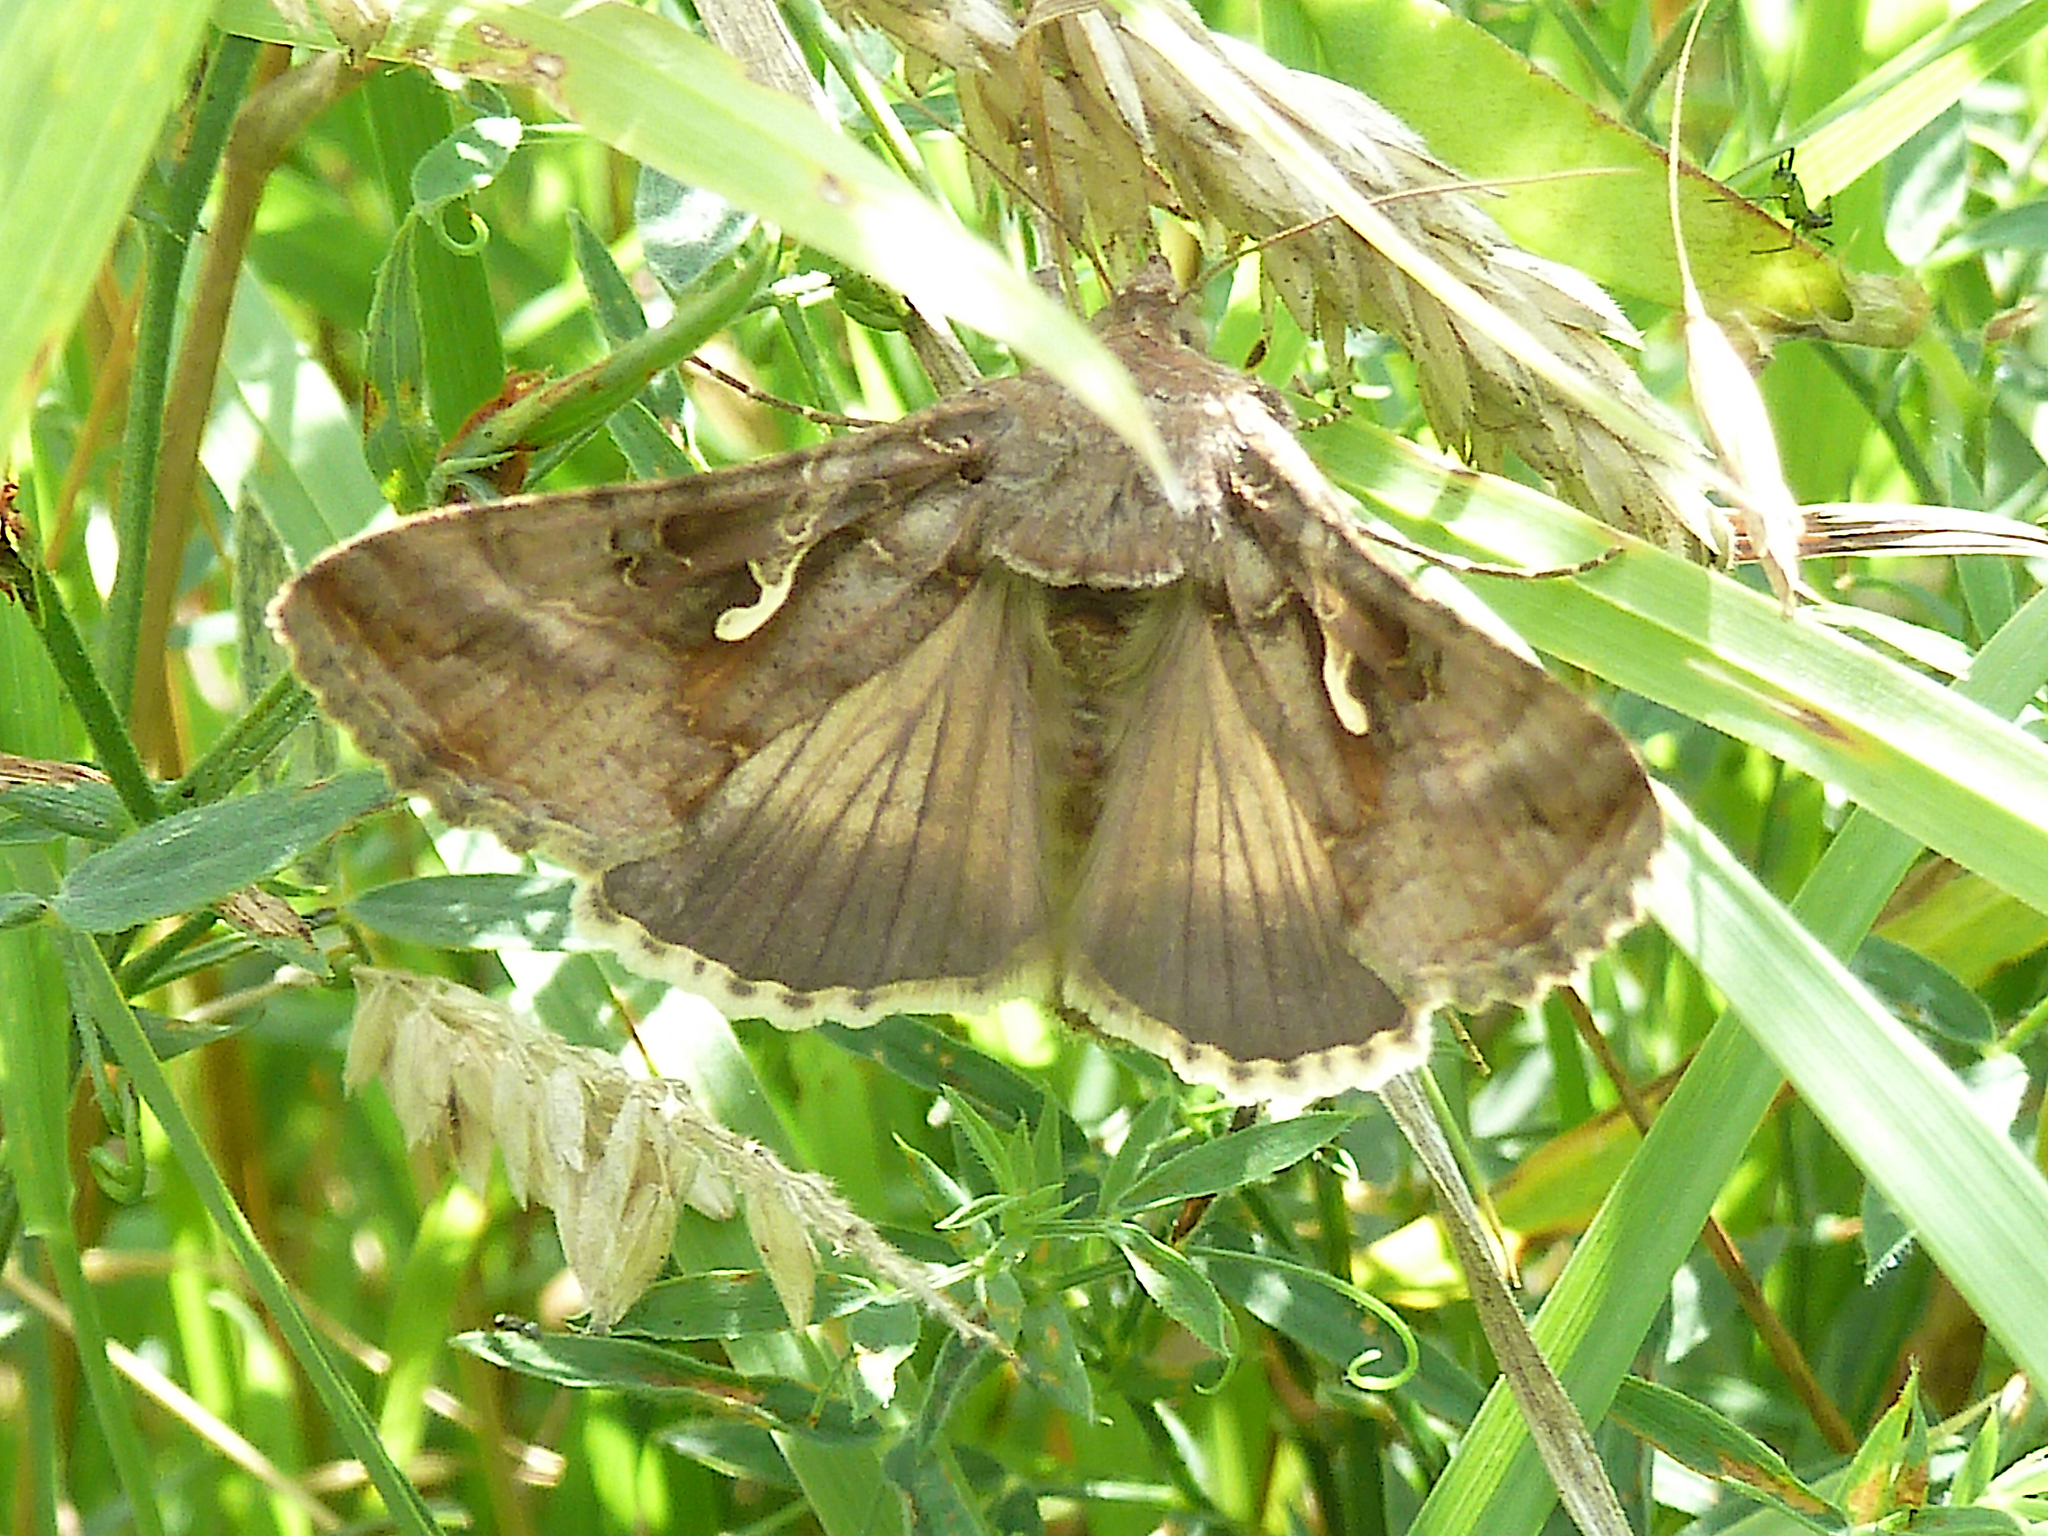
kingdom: Animalia
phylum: Arthropoda
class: Insecta
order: Lepidoptera
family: Noctuidae
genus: Autographa
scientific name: Autographa gamma
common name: Silver y
